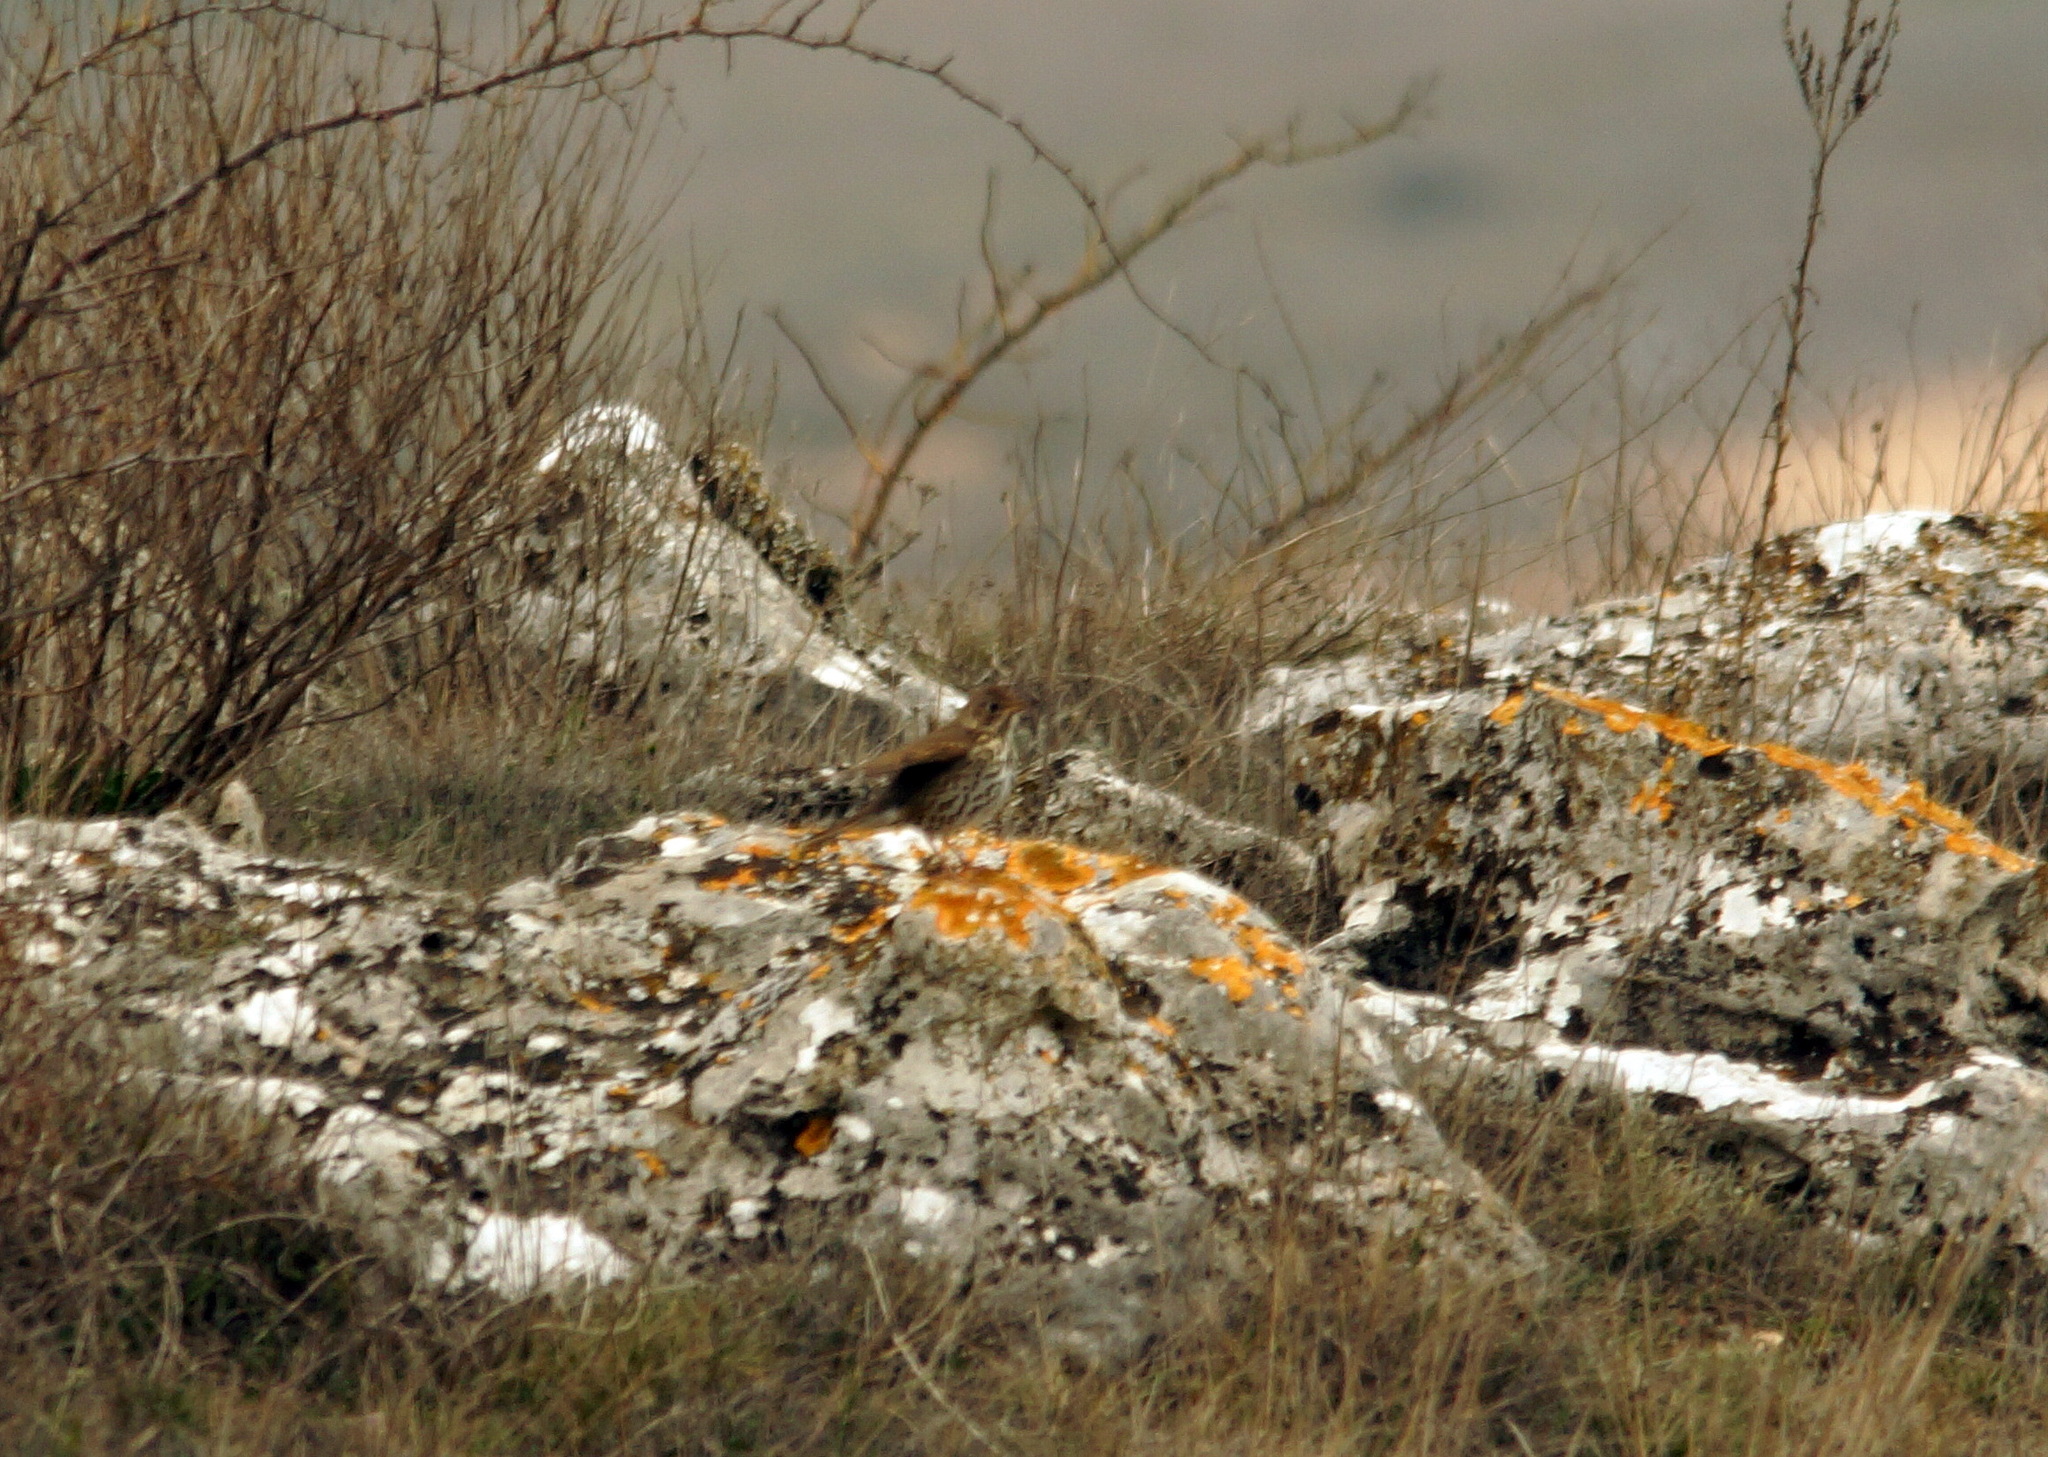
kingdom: Animalia
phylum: Chordata
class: Aves
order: Passeriformes
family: Turdidae
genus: Turdus
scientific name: Turdus philomelos
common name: Song thrush
